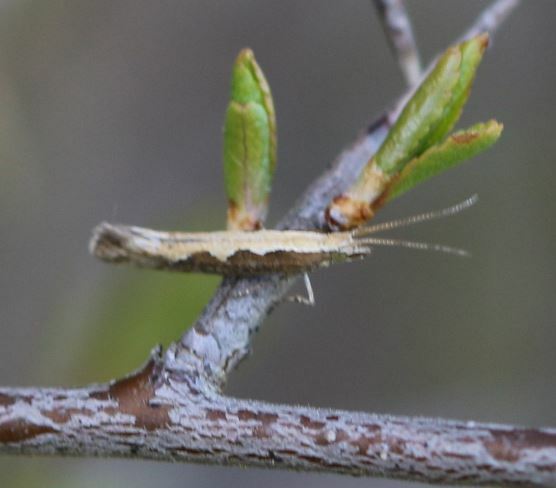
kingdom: Animalia
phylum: Arthropoda
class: Insecta
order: Lepidoptera
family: Plutellidae
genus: Plutella
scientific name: Plutella xylostella
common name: Diamond-back moth
